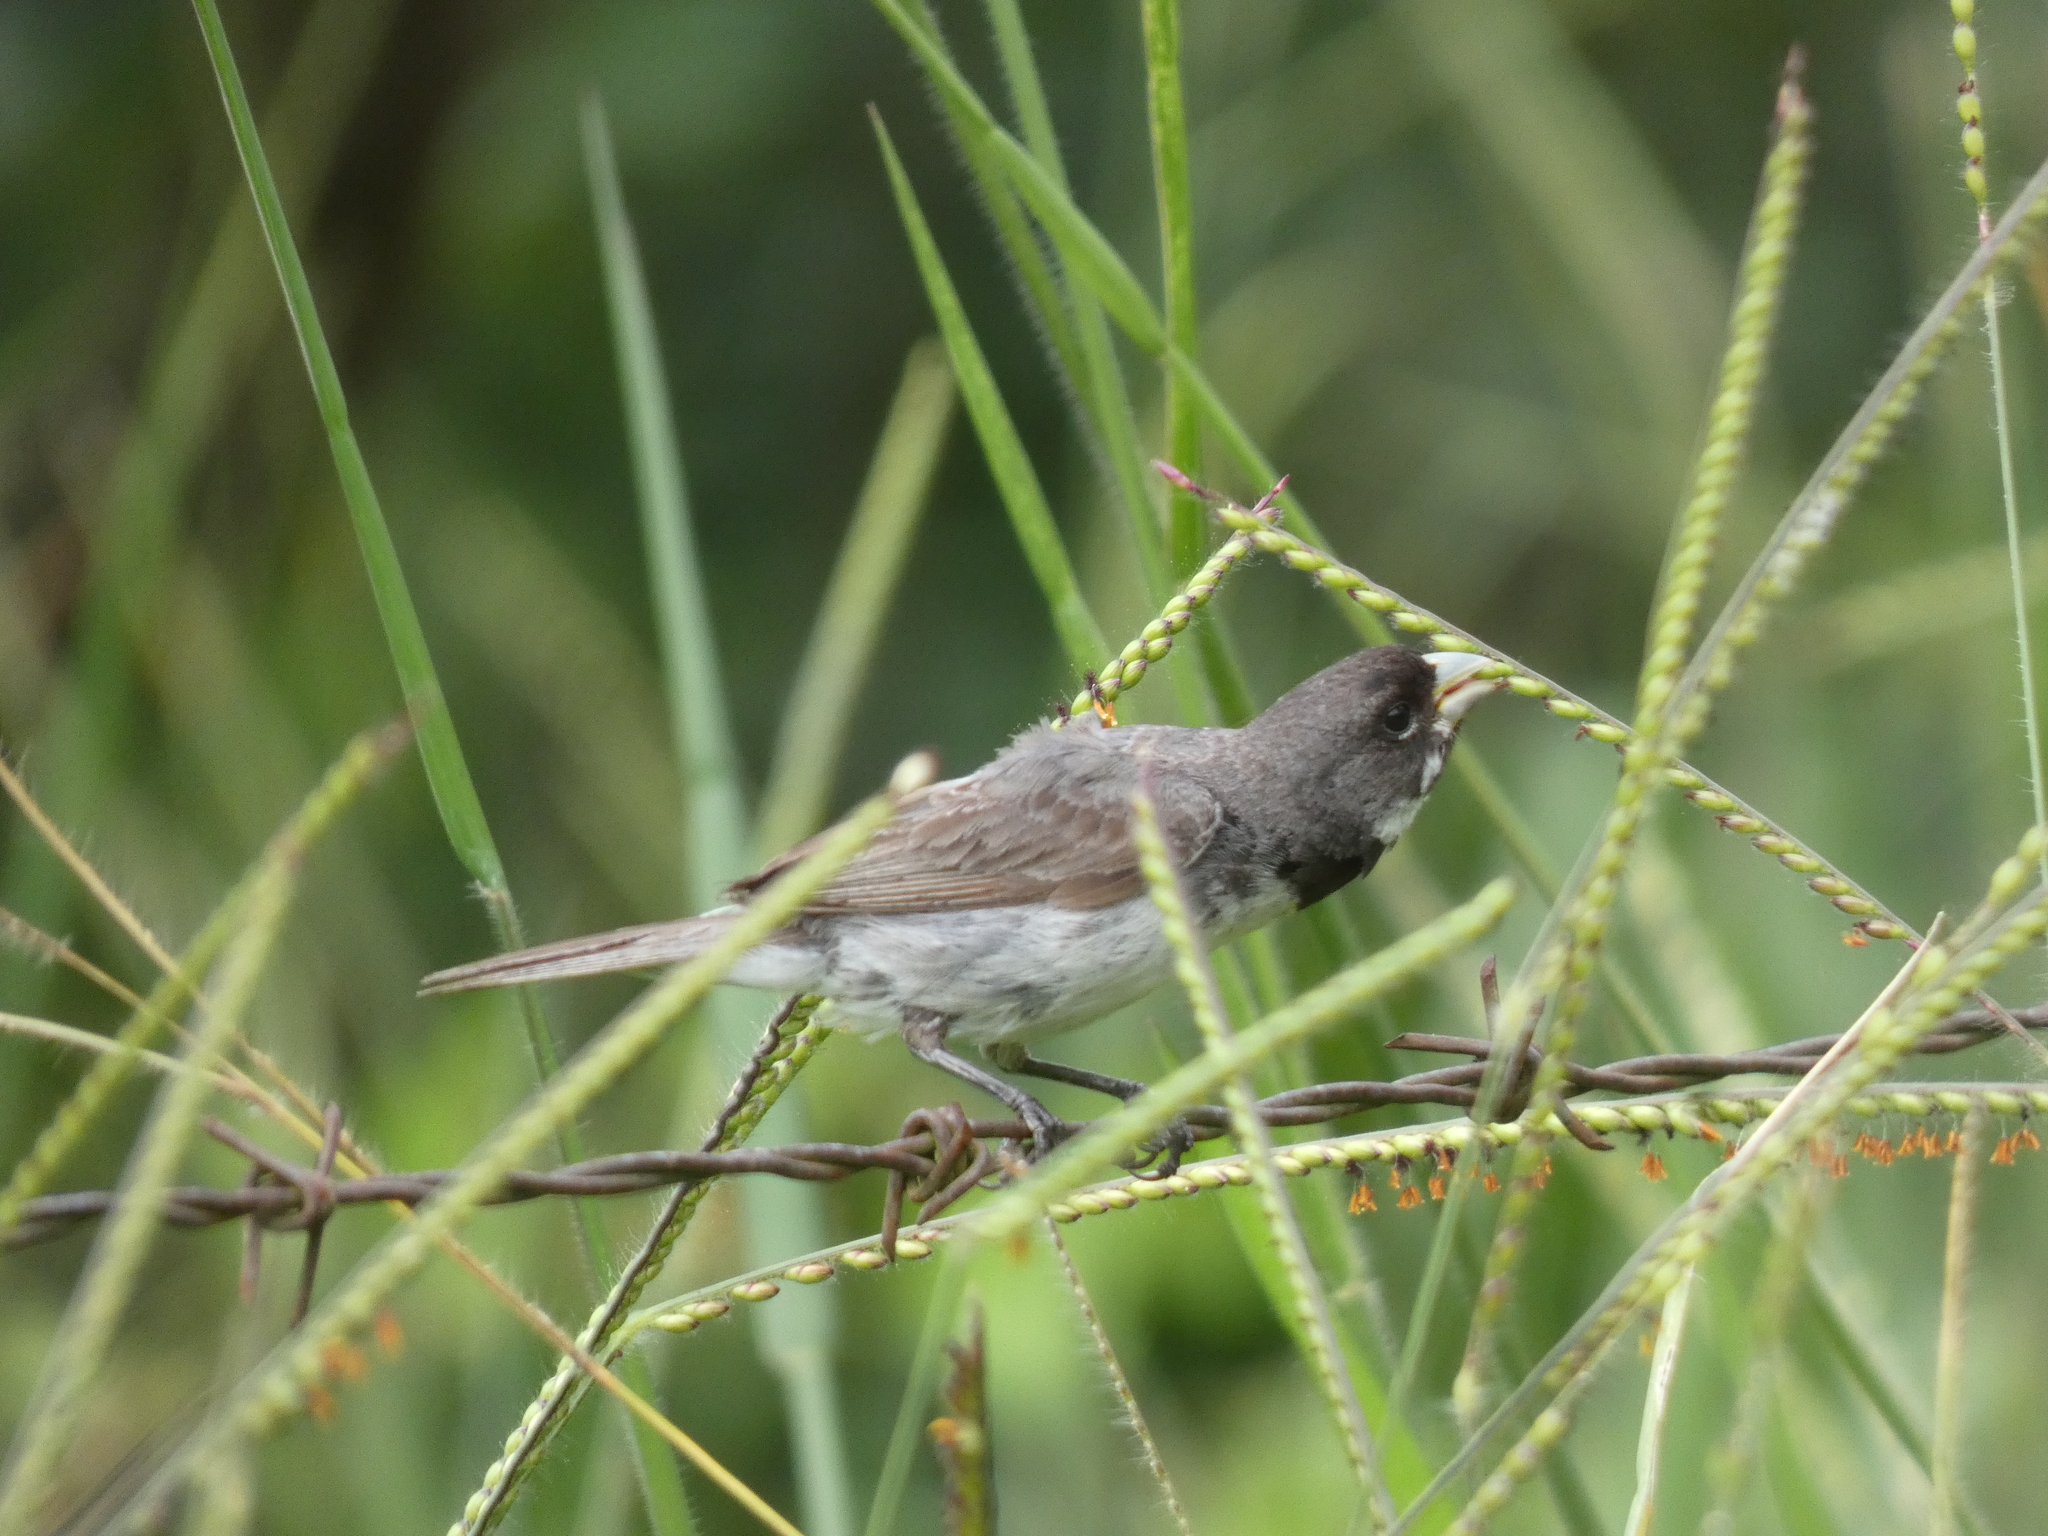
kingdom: Animalia
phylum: Chordata
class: Aves
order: Passeriformes
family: Thraupidae
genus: Sporophila
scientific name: Sporophila caerulescens
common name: Double-collared seedeater
